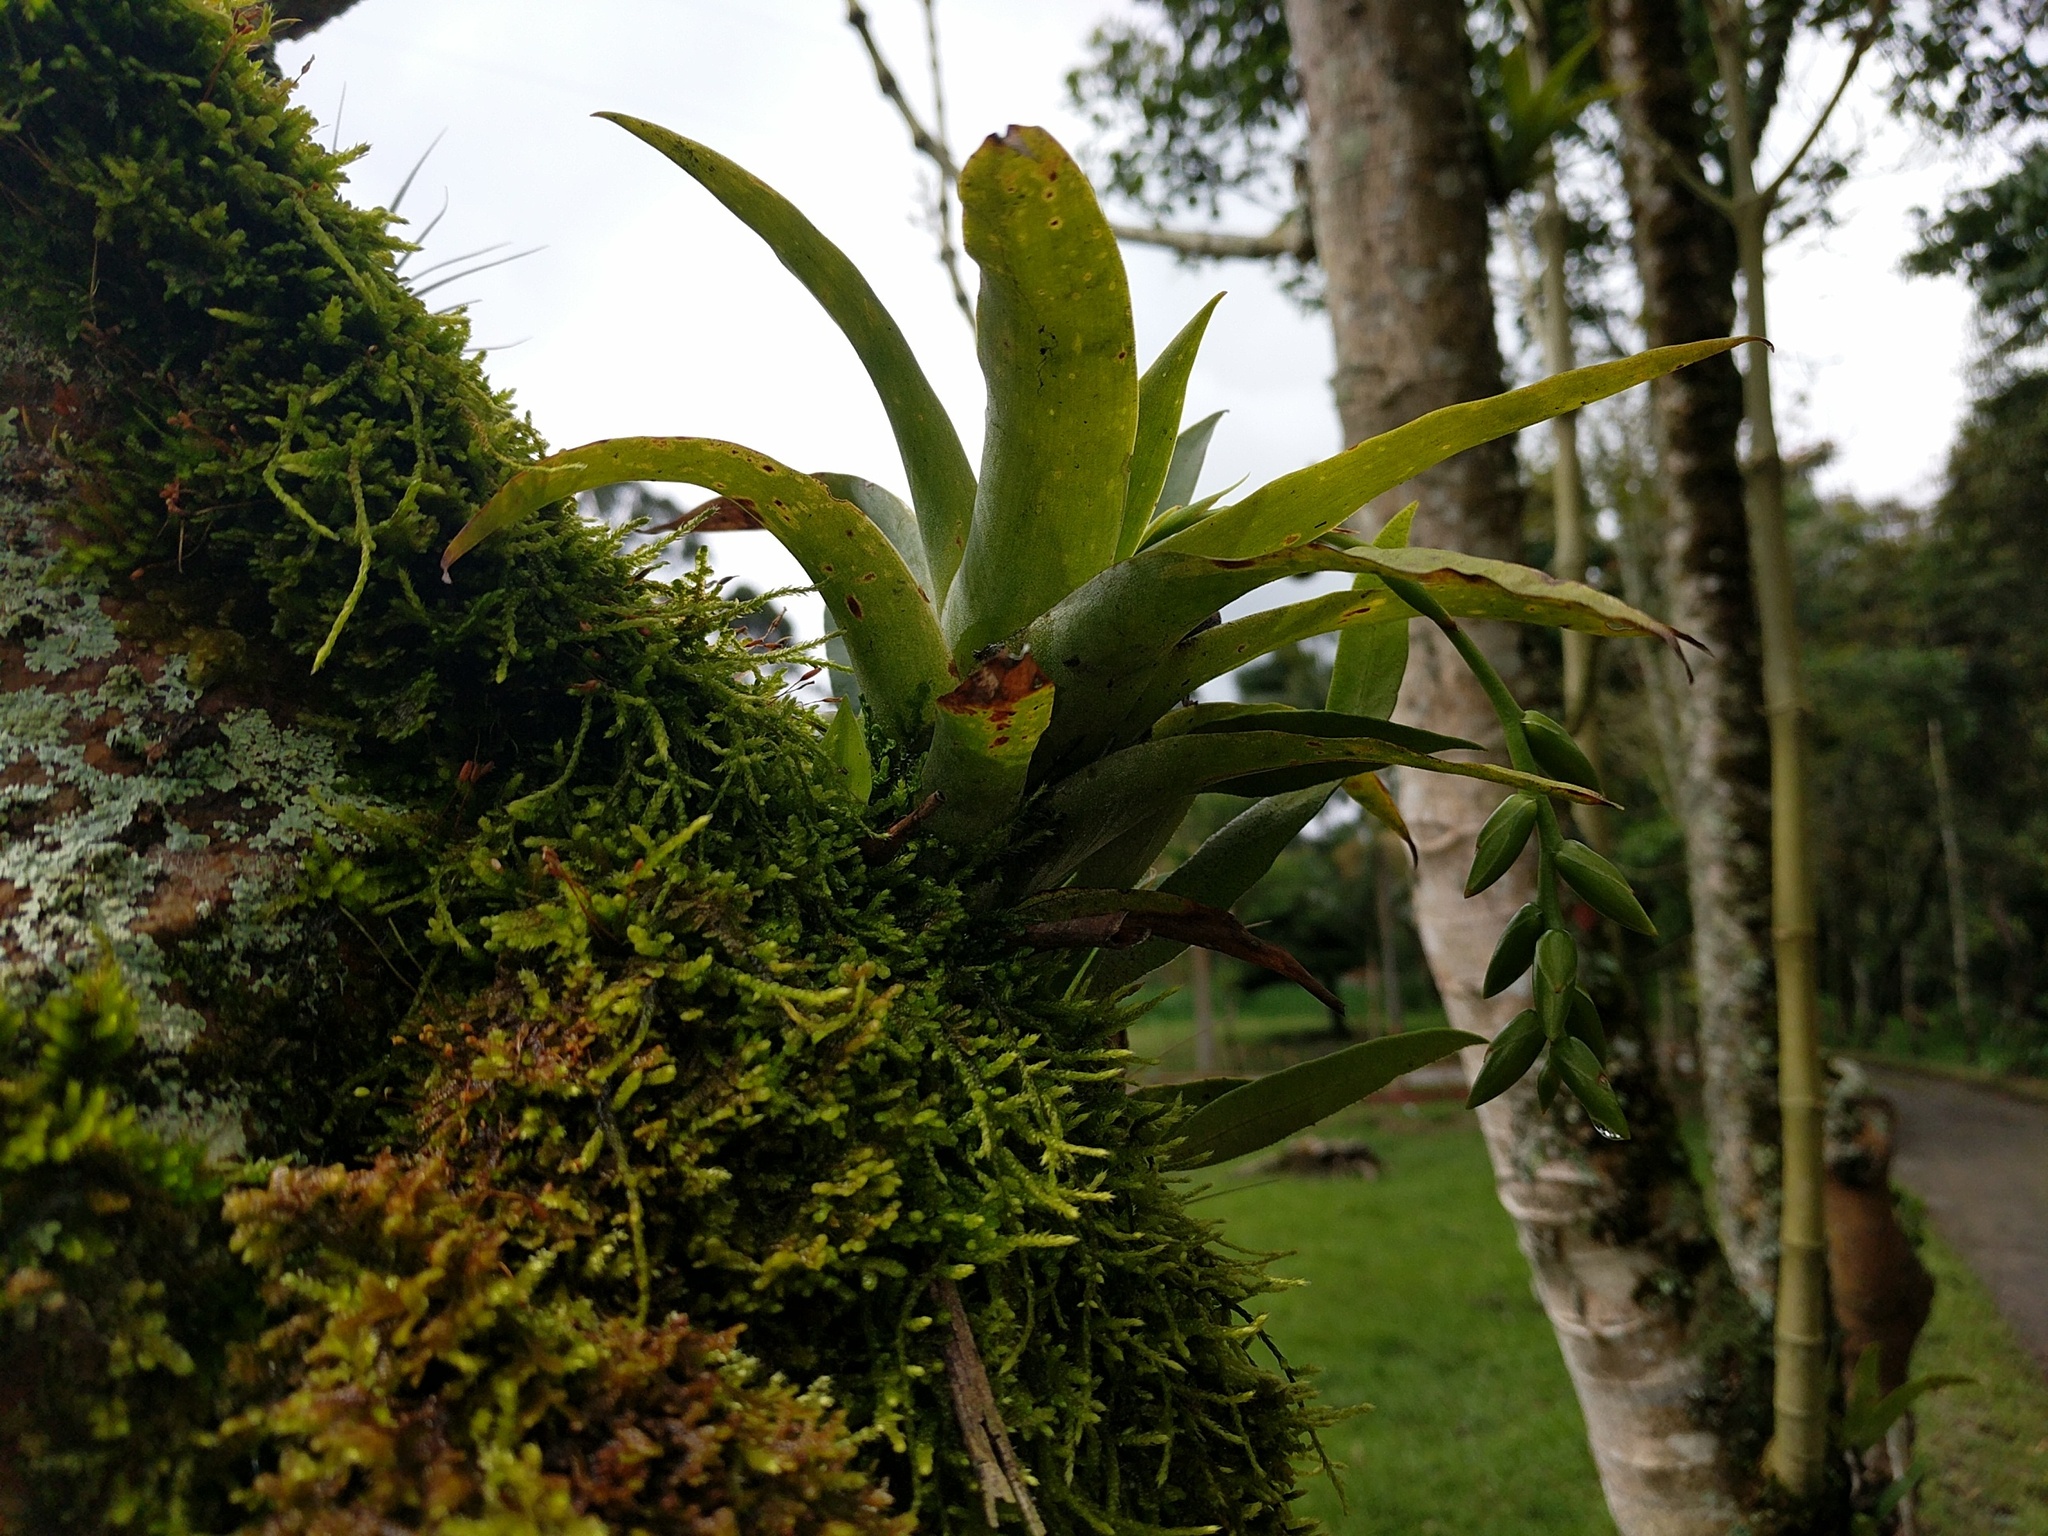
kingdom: Plantae
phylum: Tracheophyta
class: Liliopsida
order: Poales
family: Bromeliaceae
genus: Catopsis
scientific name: Catopsis nutans
